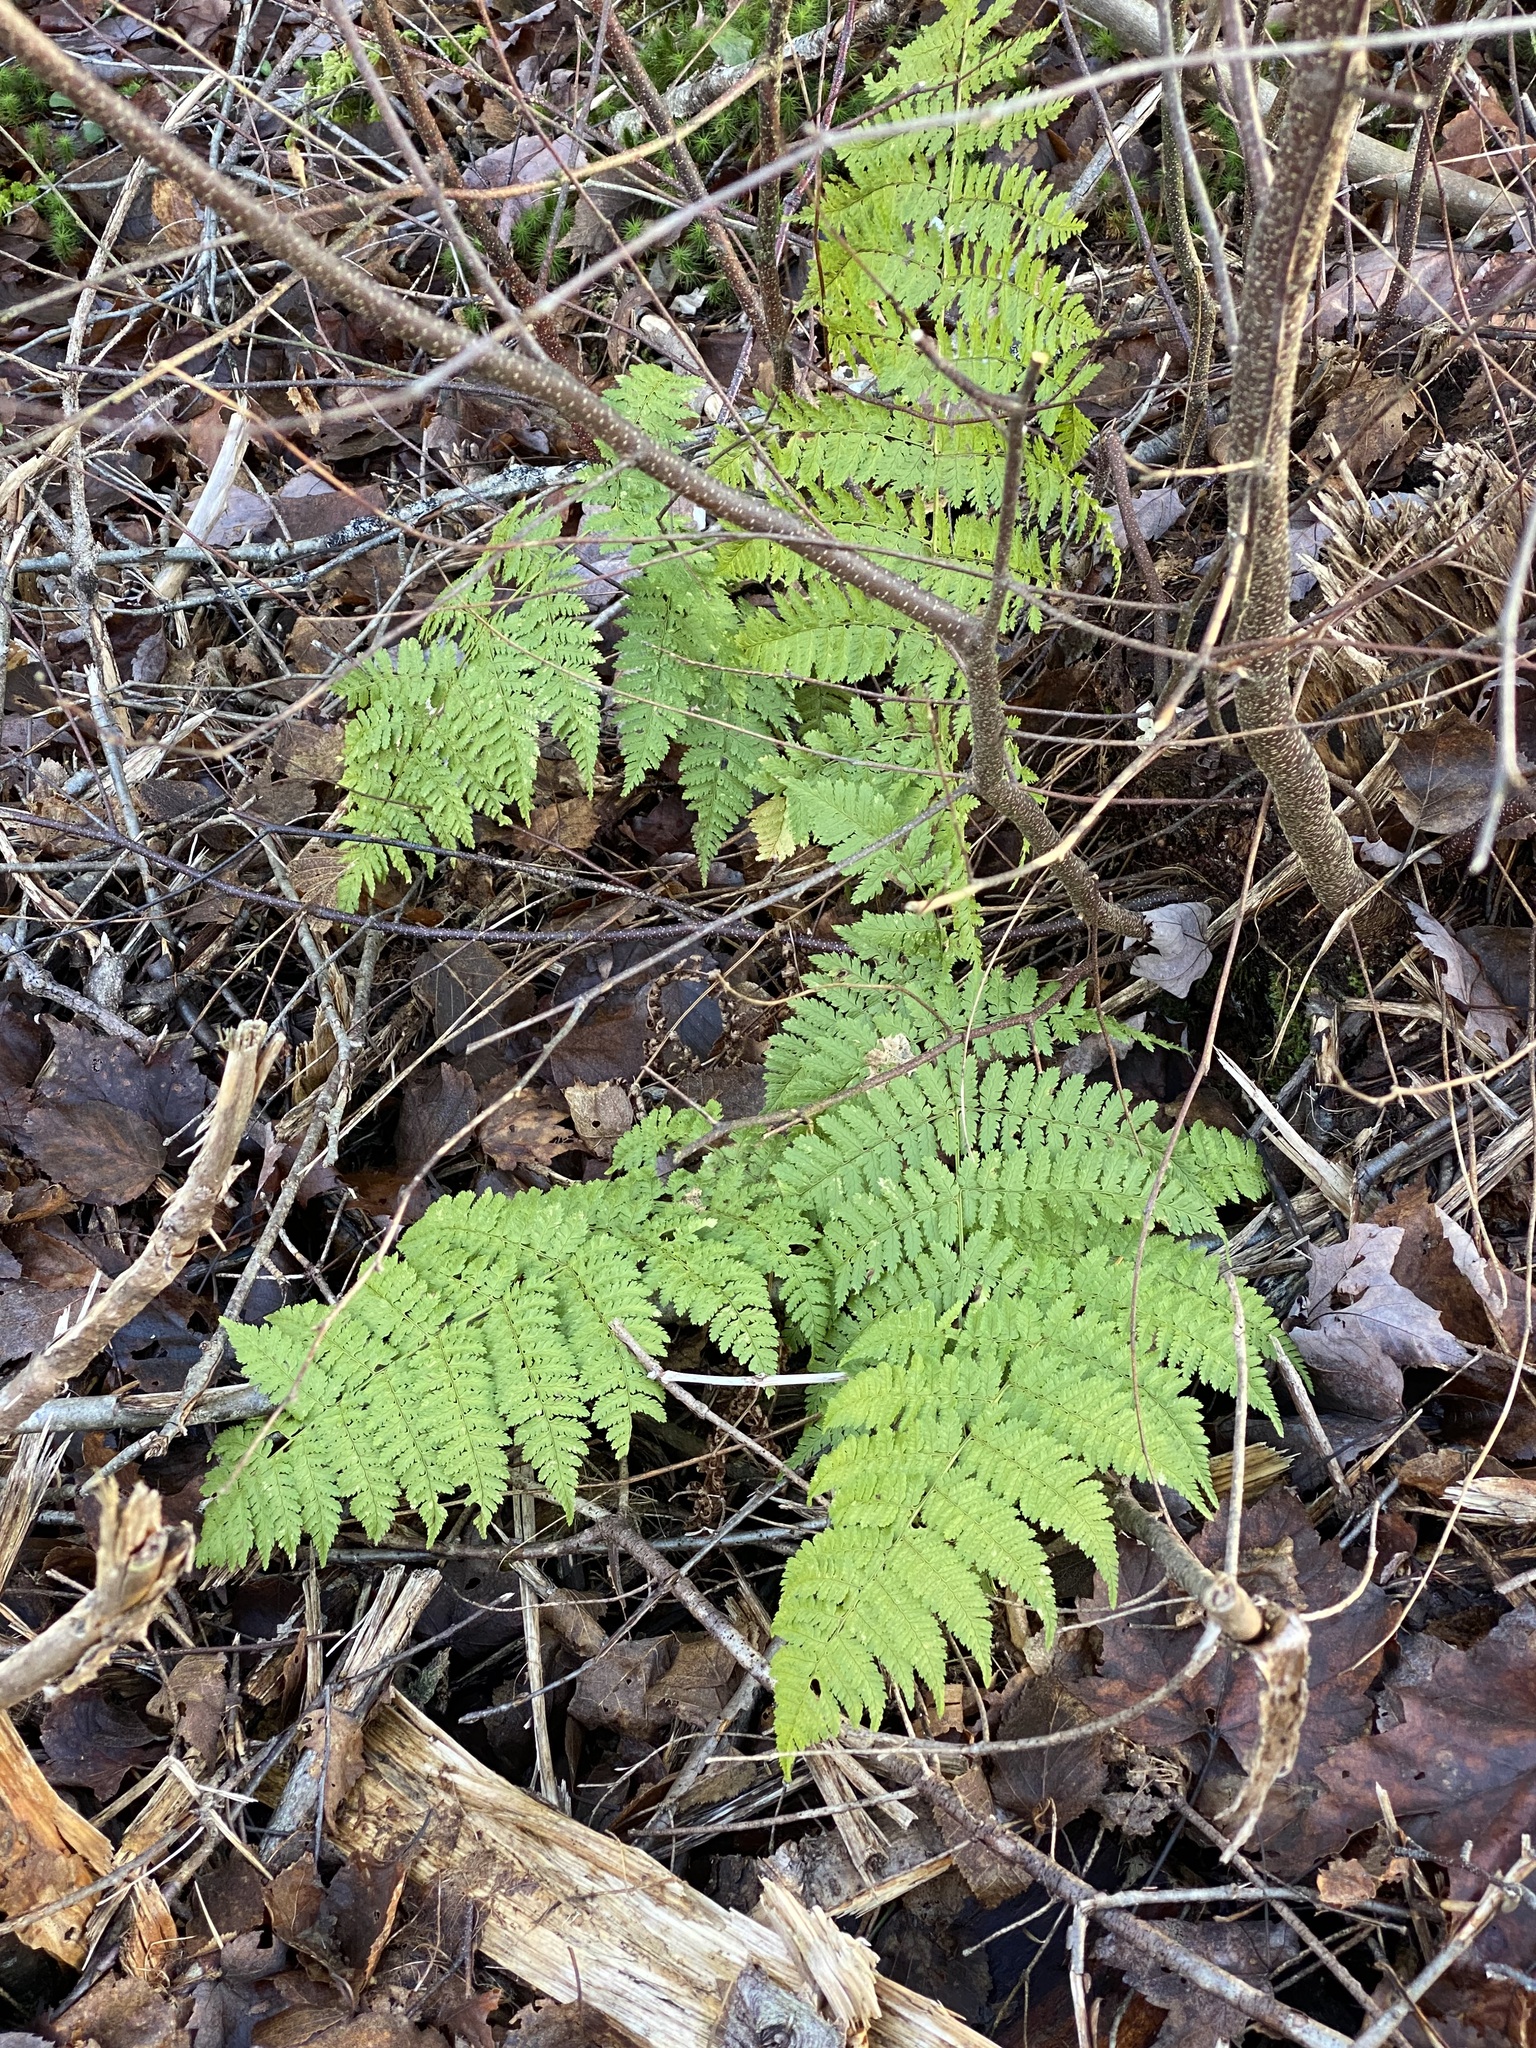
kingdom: Plantae
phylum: Tracheophyta
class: Polypodiopsida
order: Polypodiales
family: Dryopteridaceae
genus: Dryopteris
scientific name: Dryopteris intermedia
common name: Evergreen wood fern
